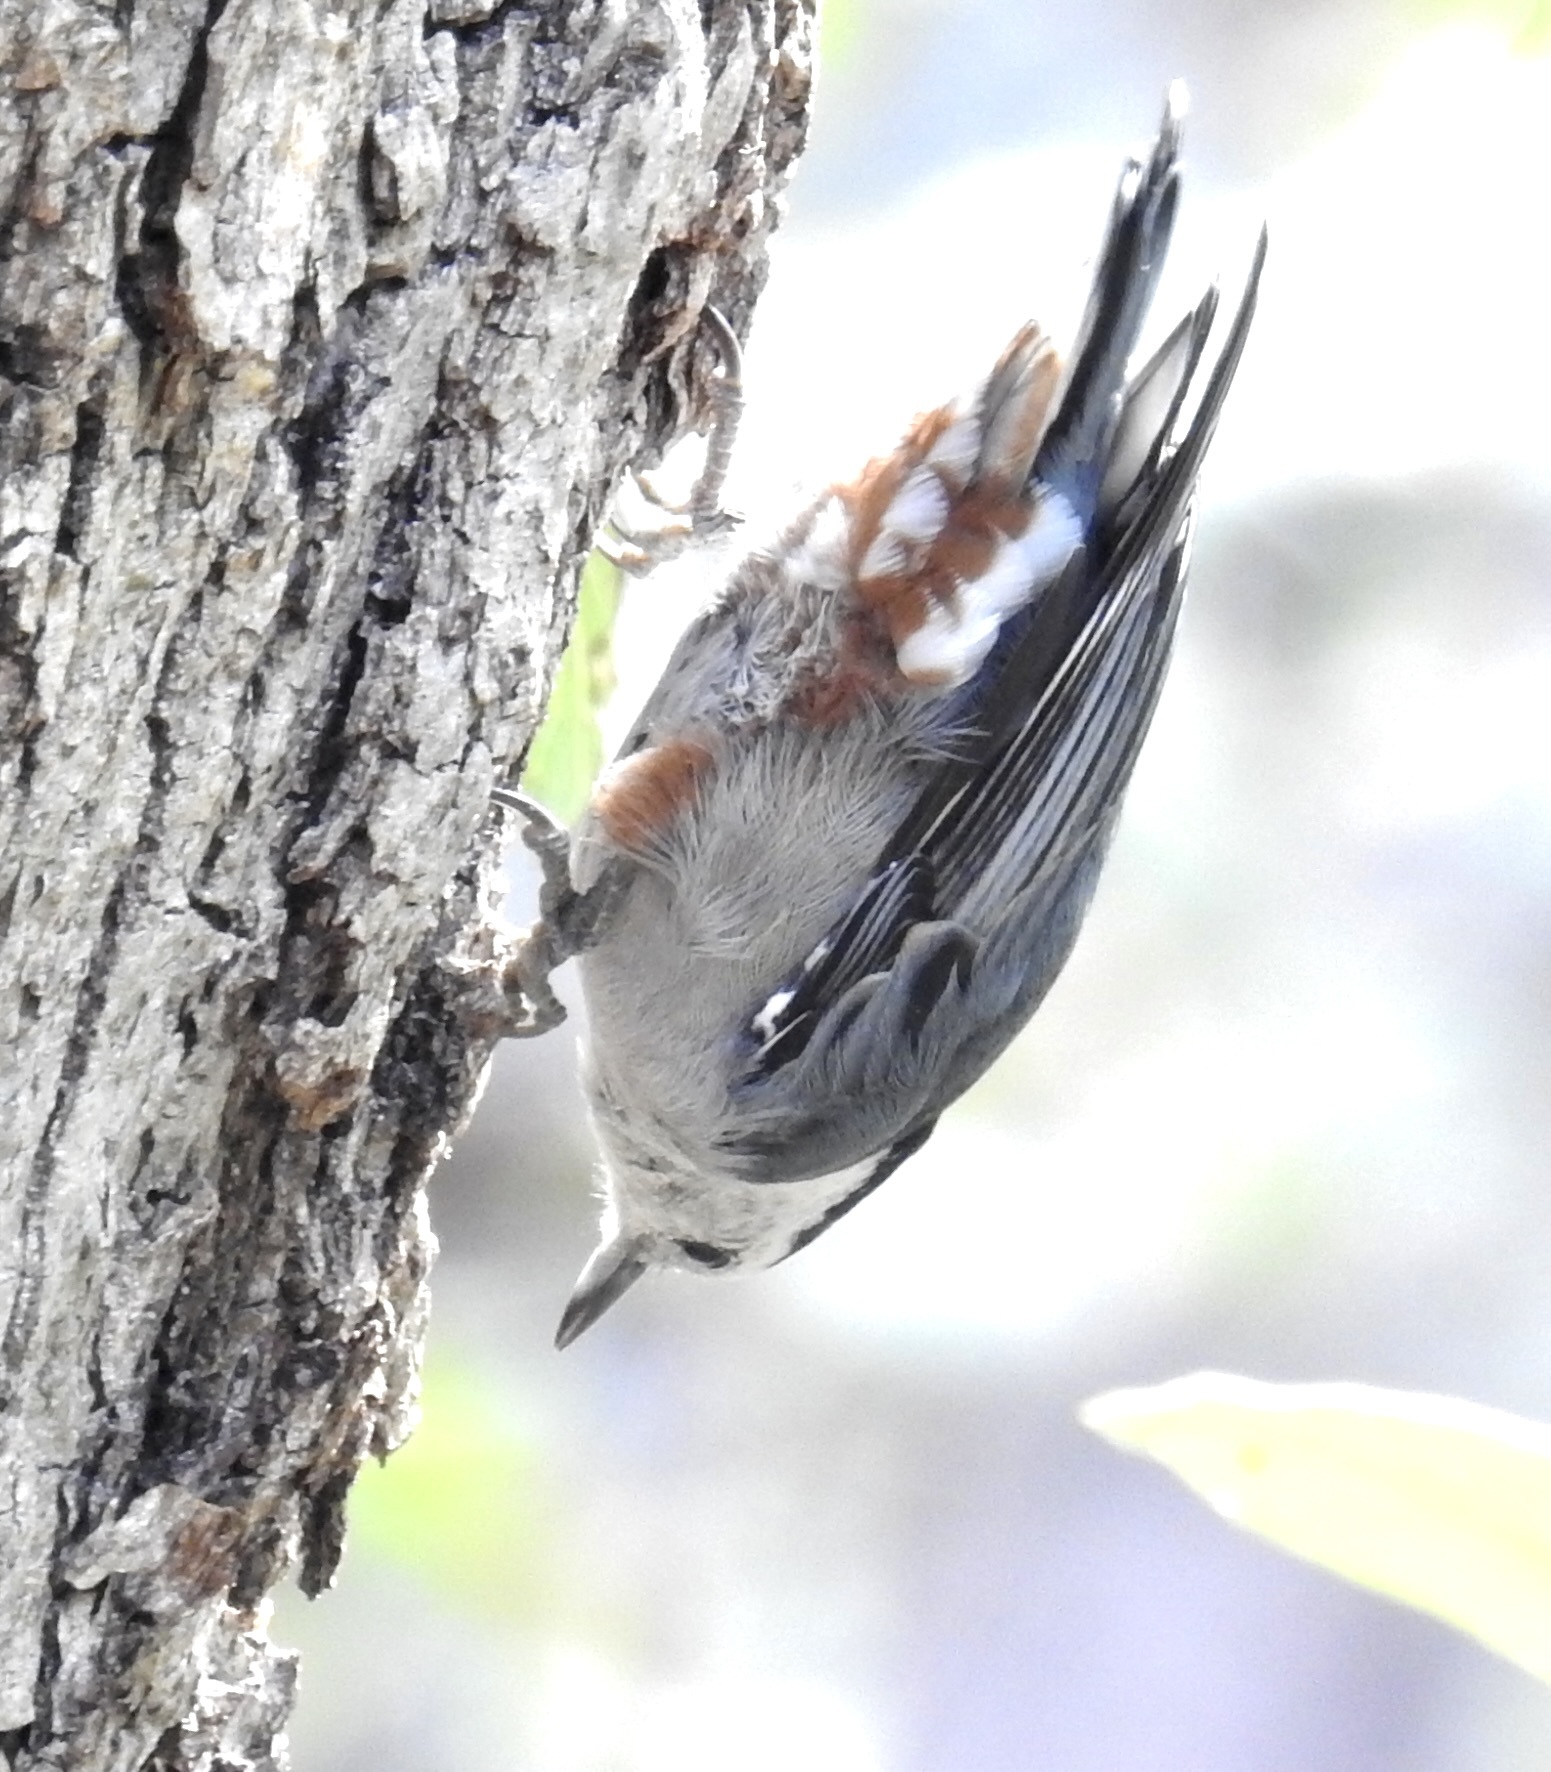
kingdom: Animalia
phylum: Chordata
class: Aves
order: Passeriformes
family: Sittidae
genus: Sitta
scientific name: Sitta carolinensis
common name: White-breasted nuthatch
